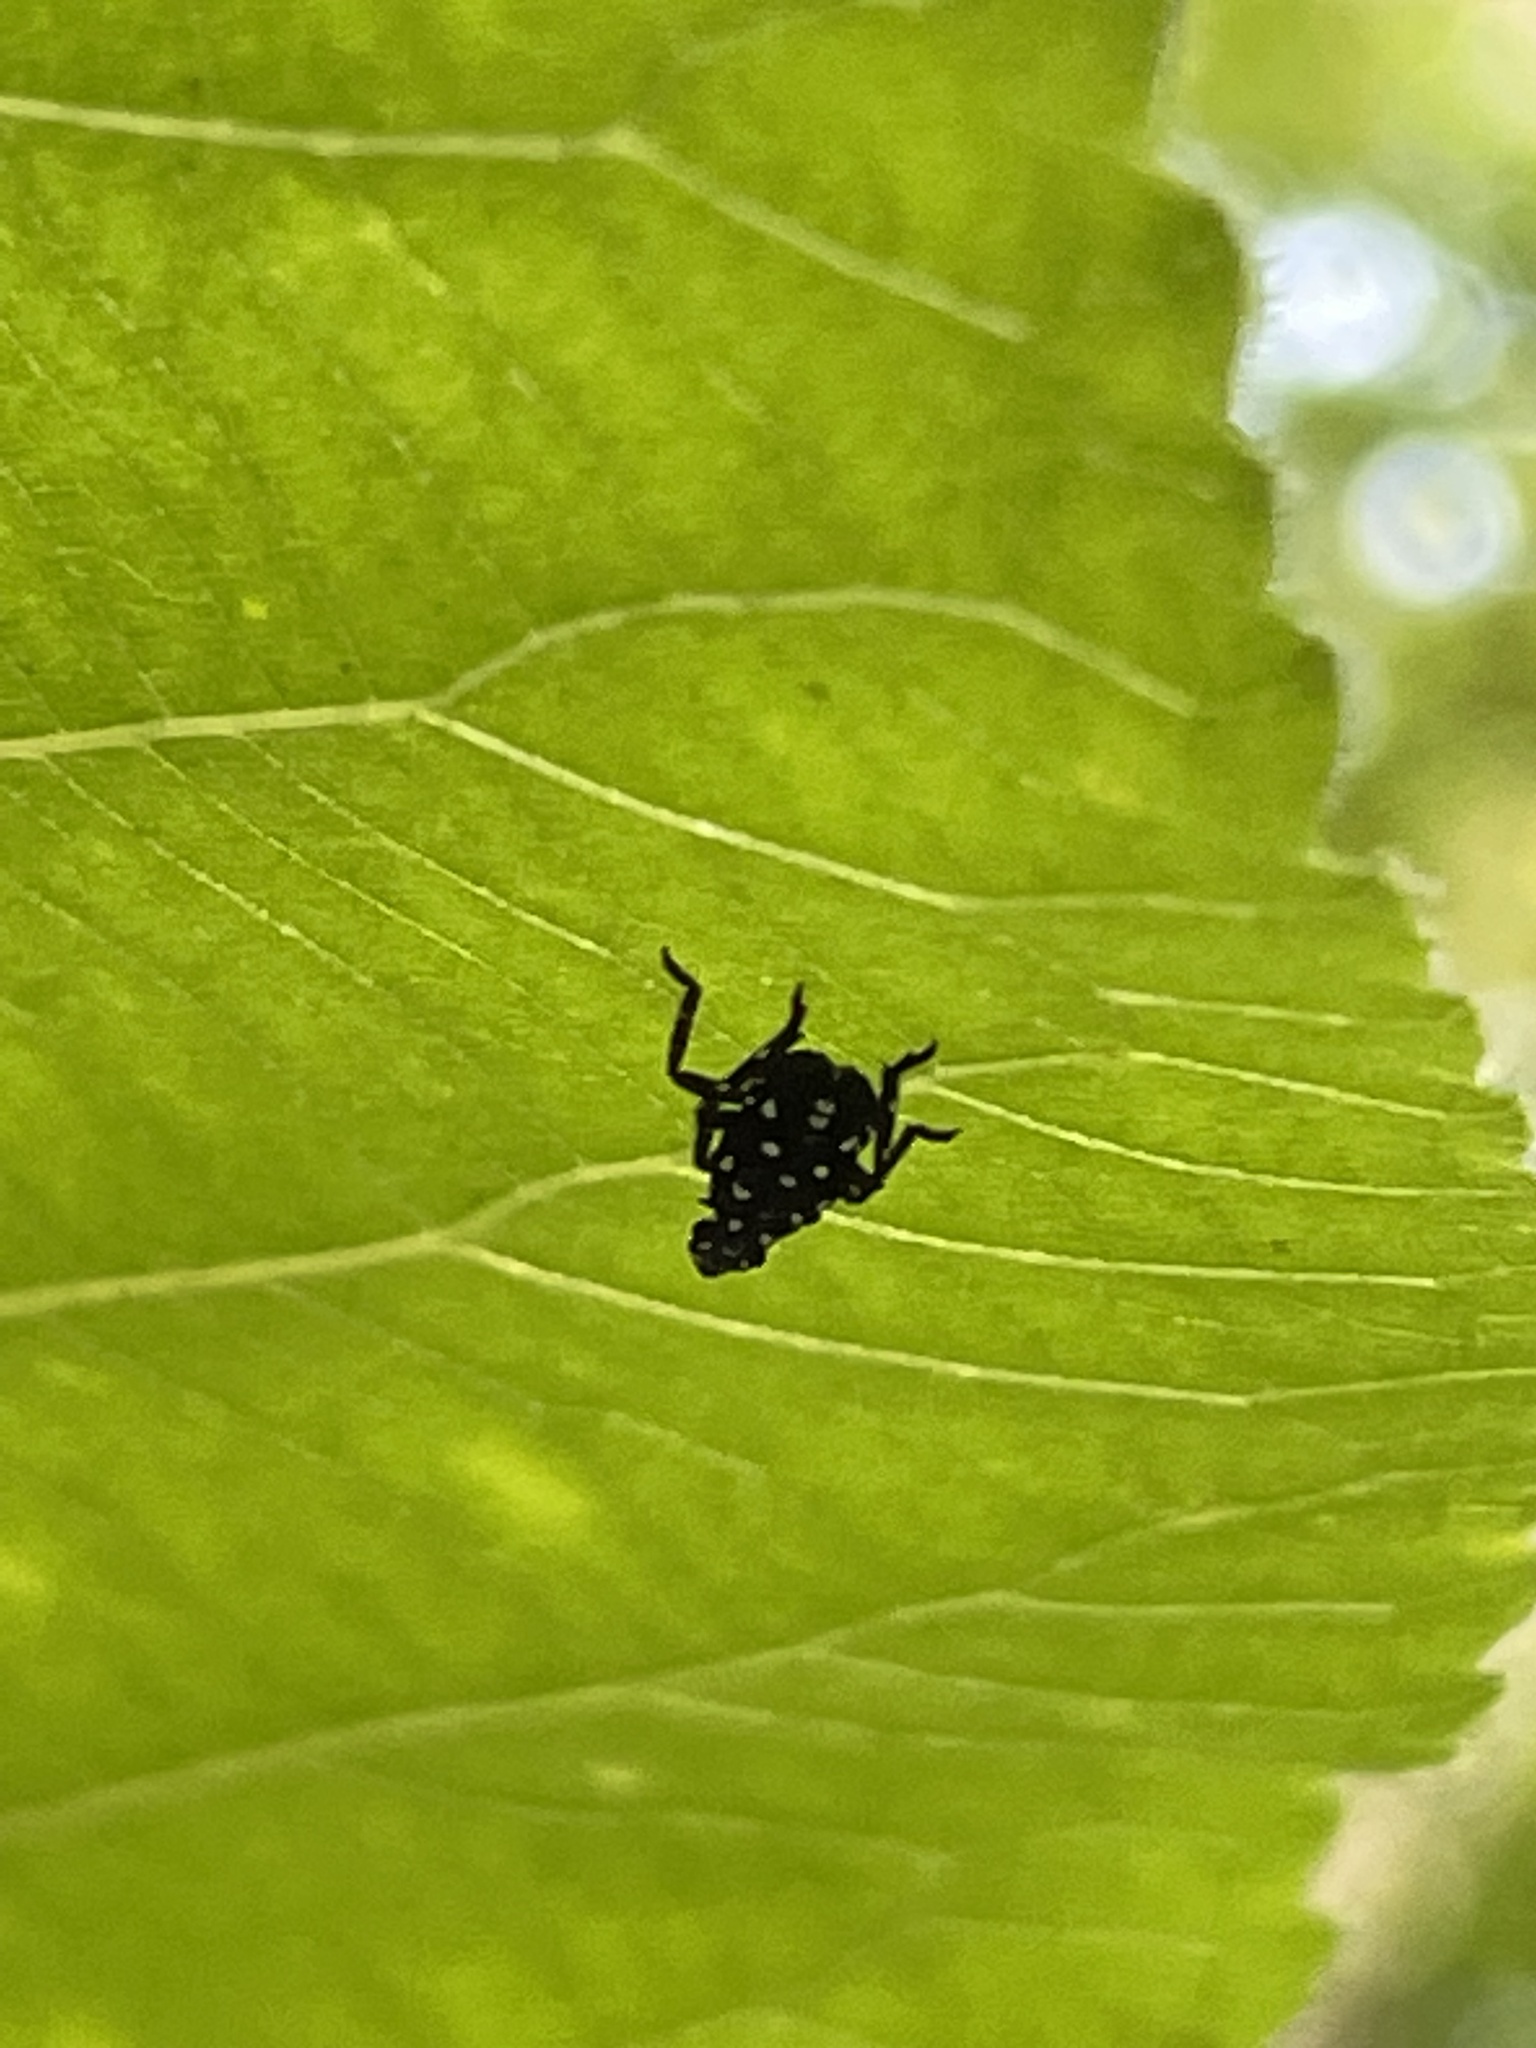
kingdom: Animalia
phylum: Arthropoda
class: Insecta
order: Hemiptera
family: Fulgoridae
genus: Lycorma
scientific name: Lycorma delicatula
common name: Spotted lanternfly
